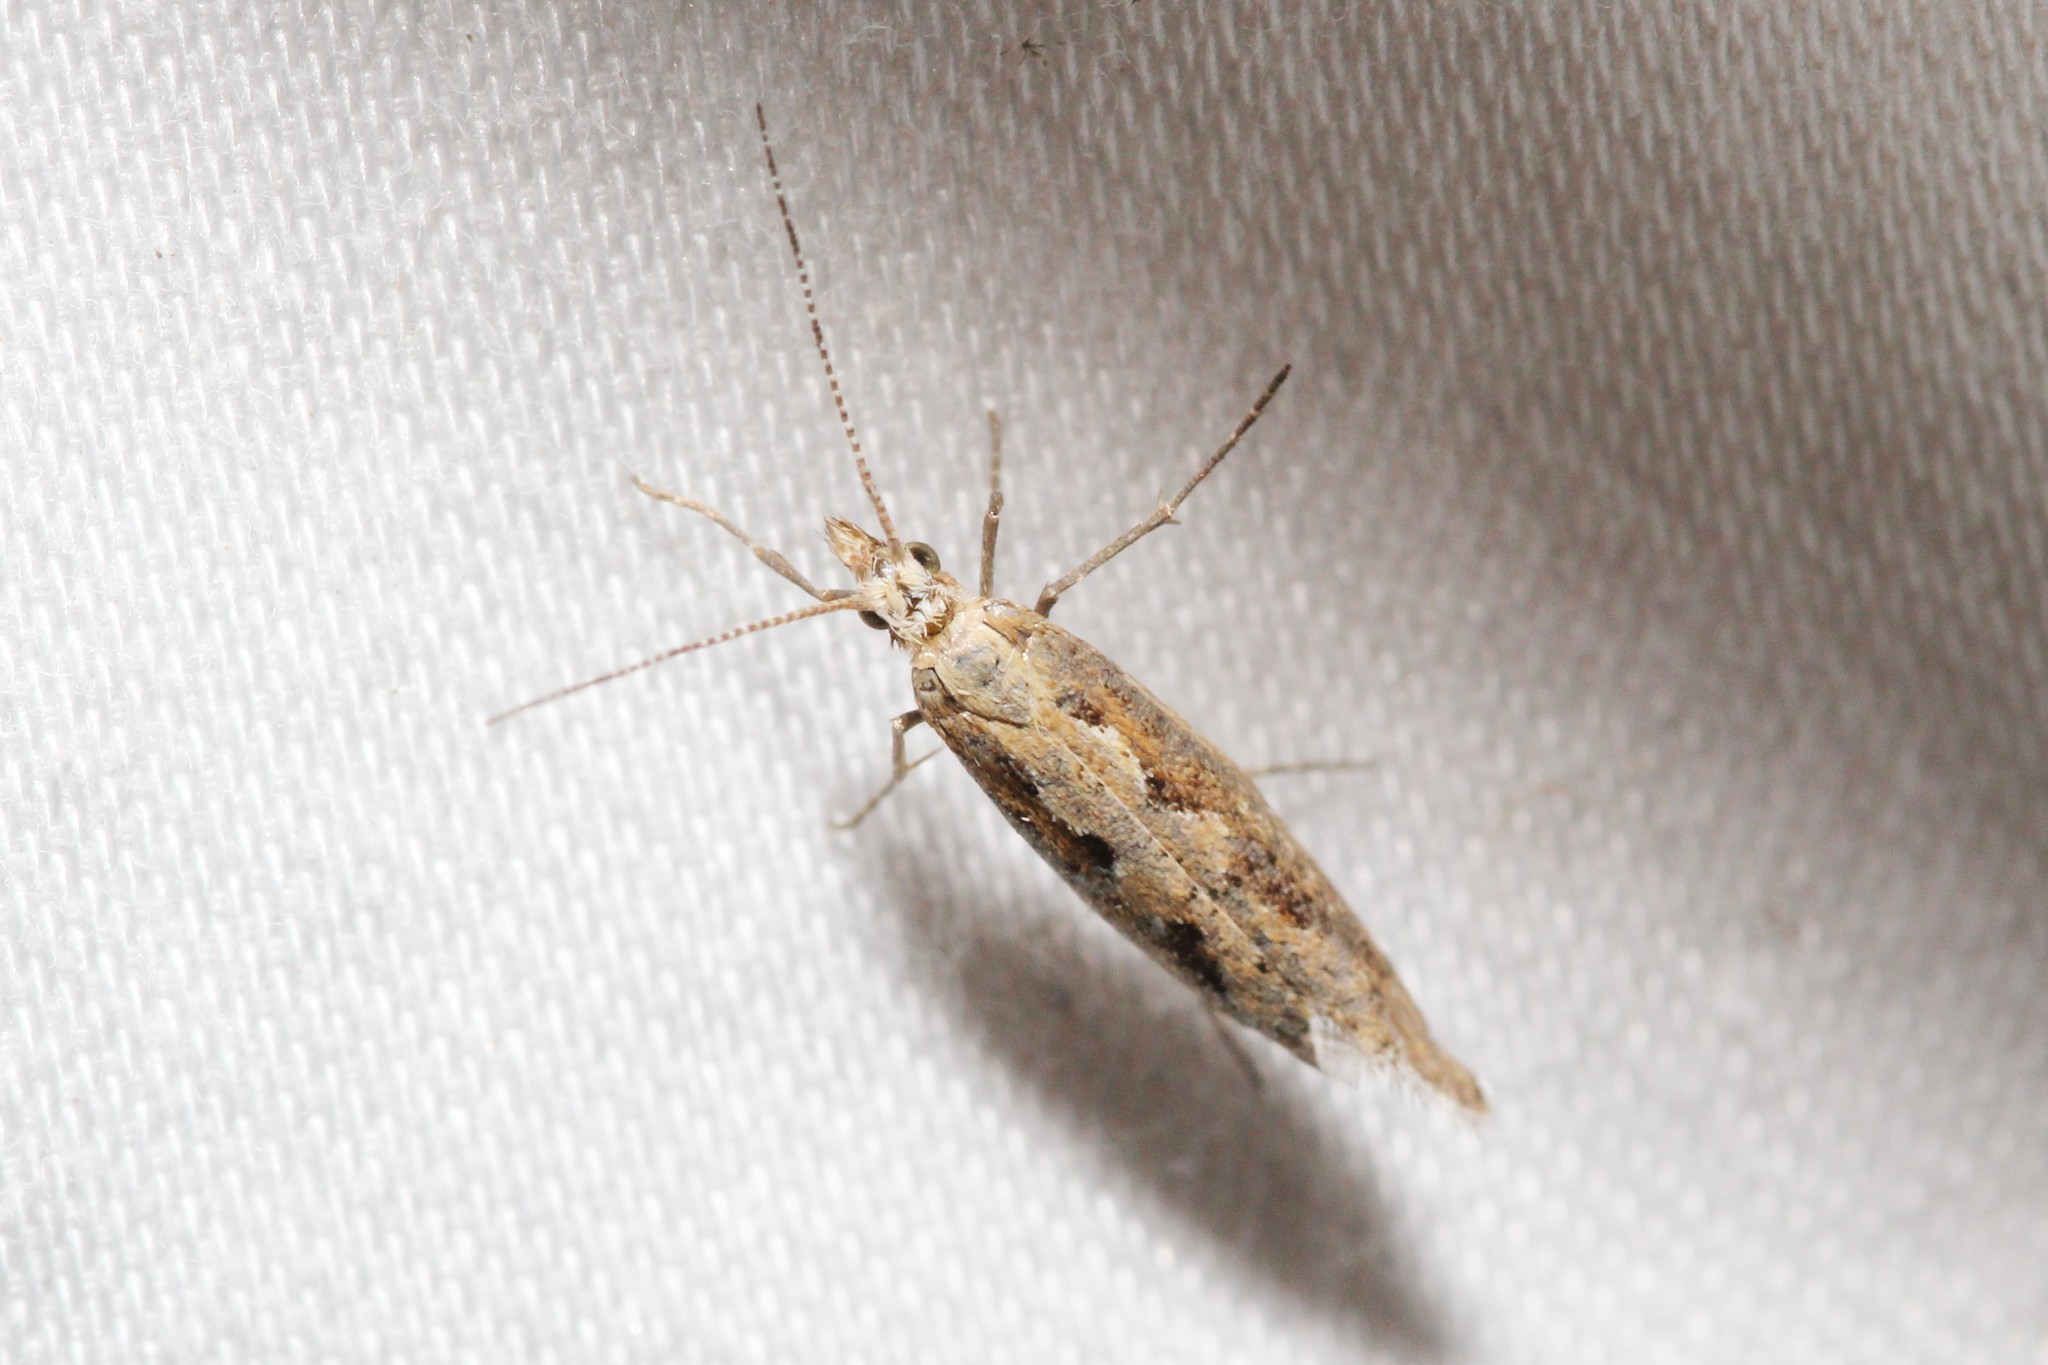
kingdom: Animalia
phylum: Arthropoda
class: Insecta
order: Lepidoptera
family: Plutellidae
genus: Plutella
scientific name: Plutella xylostella
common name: Diamond-back moth
